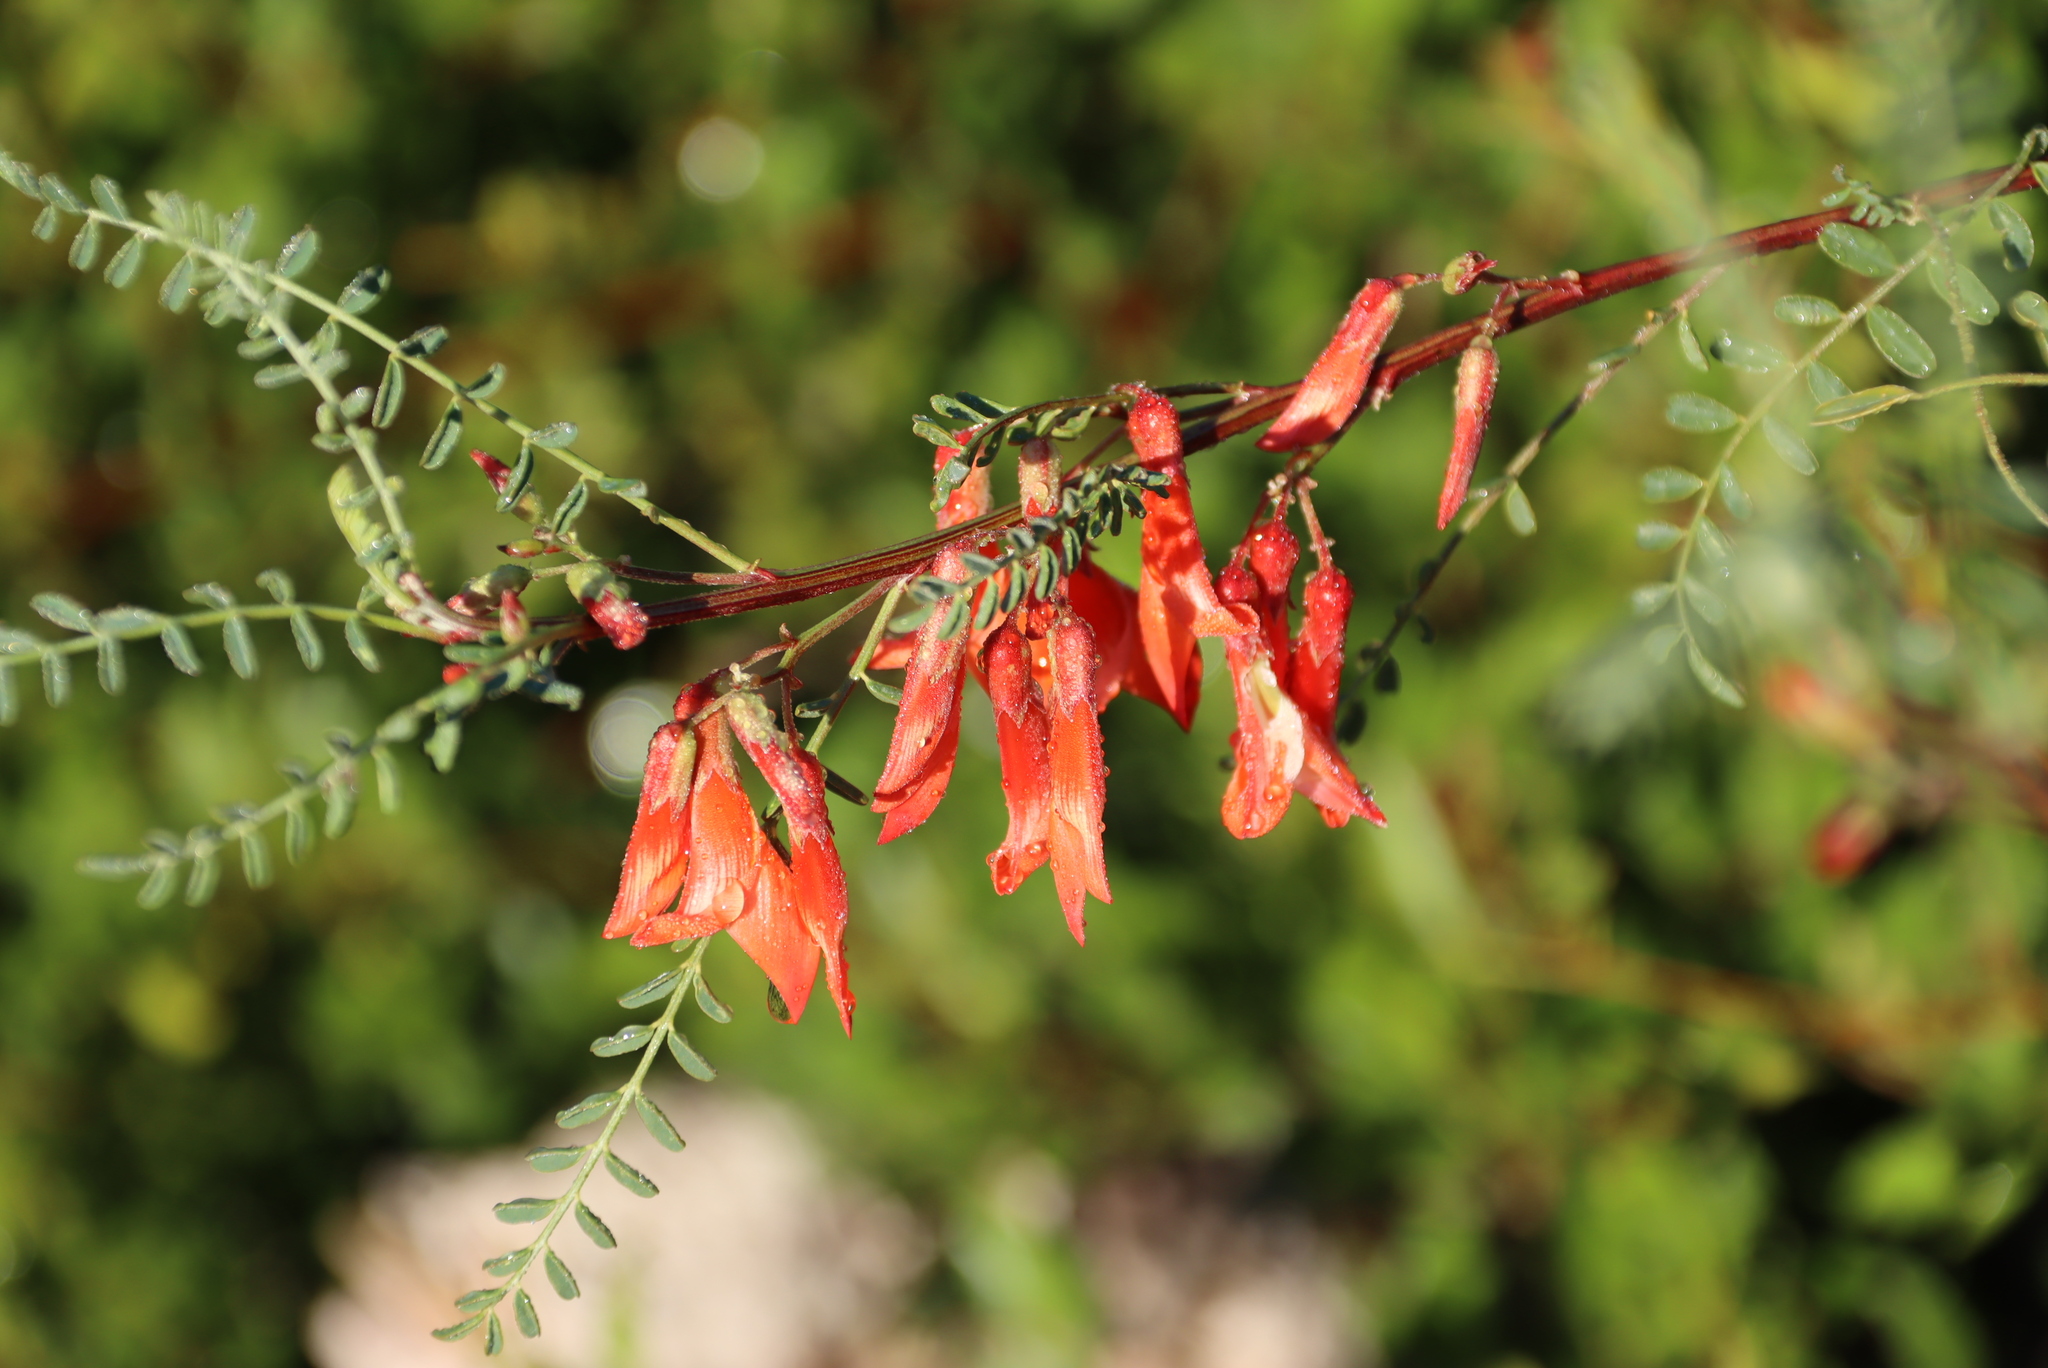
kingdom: Plantae
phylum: Tracheophyta
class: Magnoliopsida
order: Fabales
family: Fabaceae
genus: Lessertia
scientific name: Lessertia frutescens
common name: Balloon-pea
